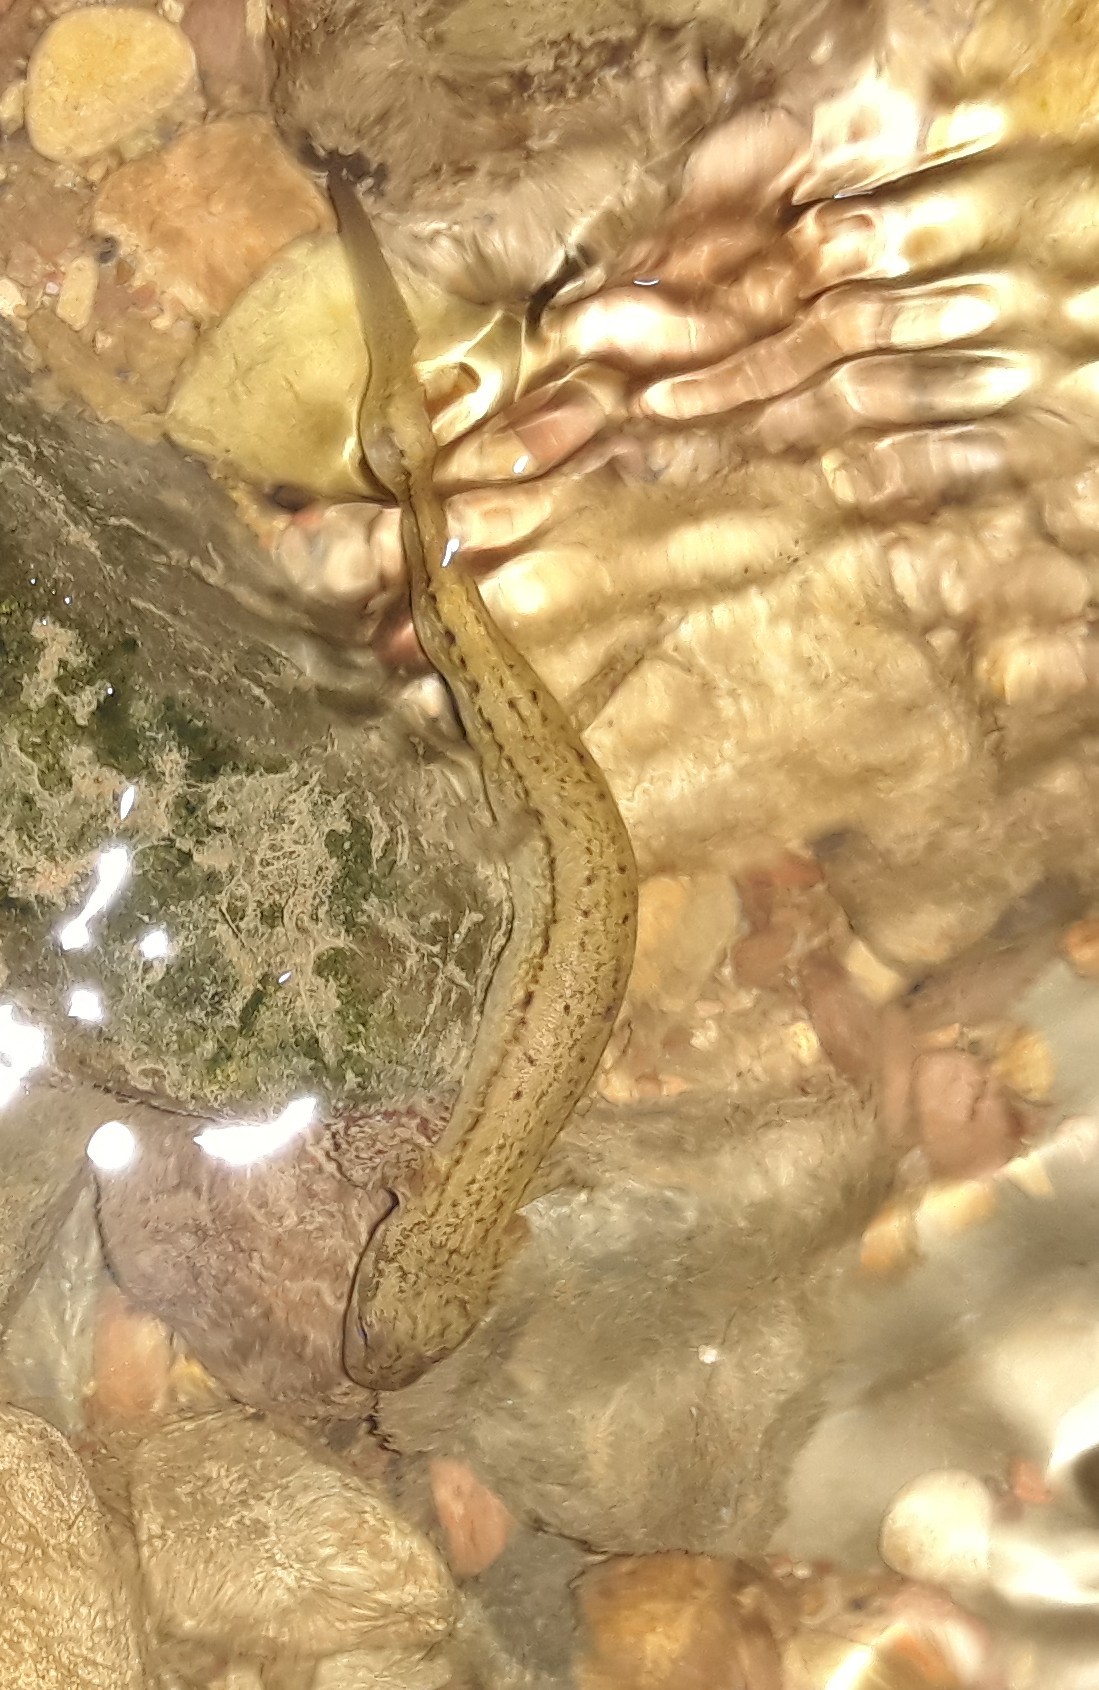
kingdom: Animalia
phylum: Chordata
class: Amphibia
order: Caudata
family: Plethodontidae
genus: Eurycea
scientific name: Eurycea cirrigera
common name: Southern two-lined salamander
